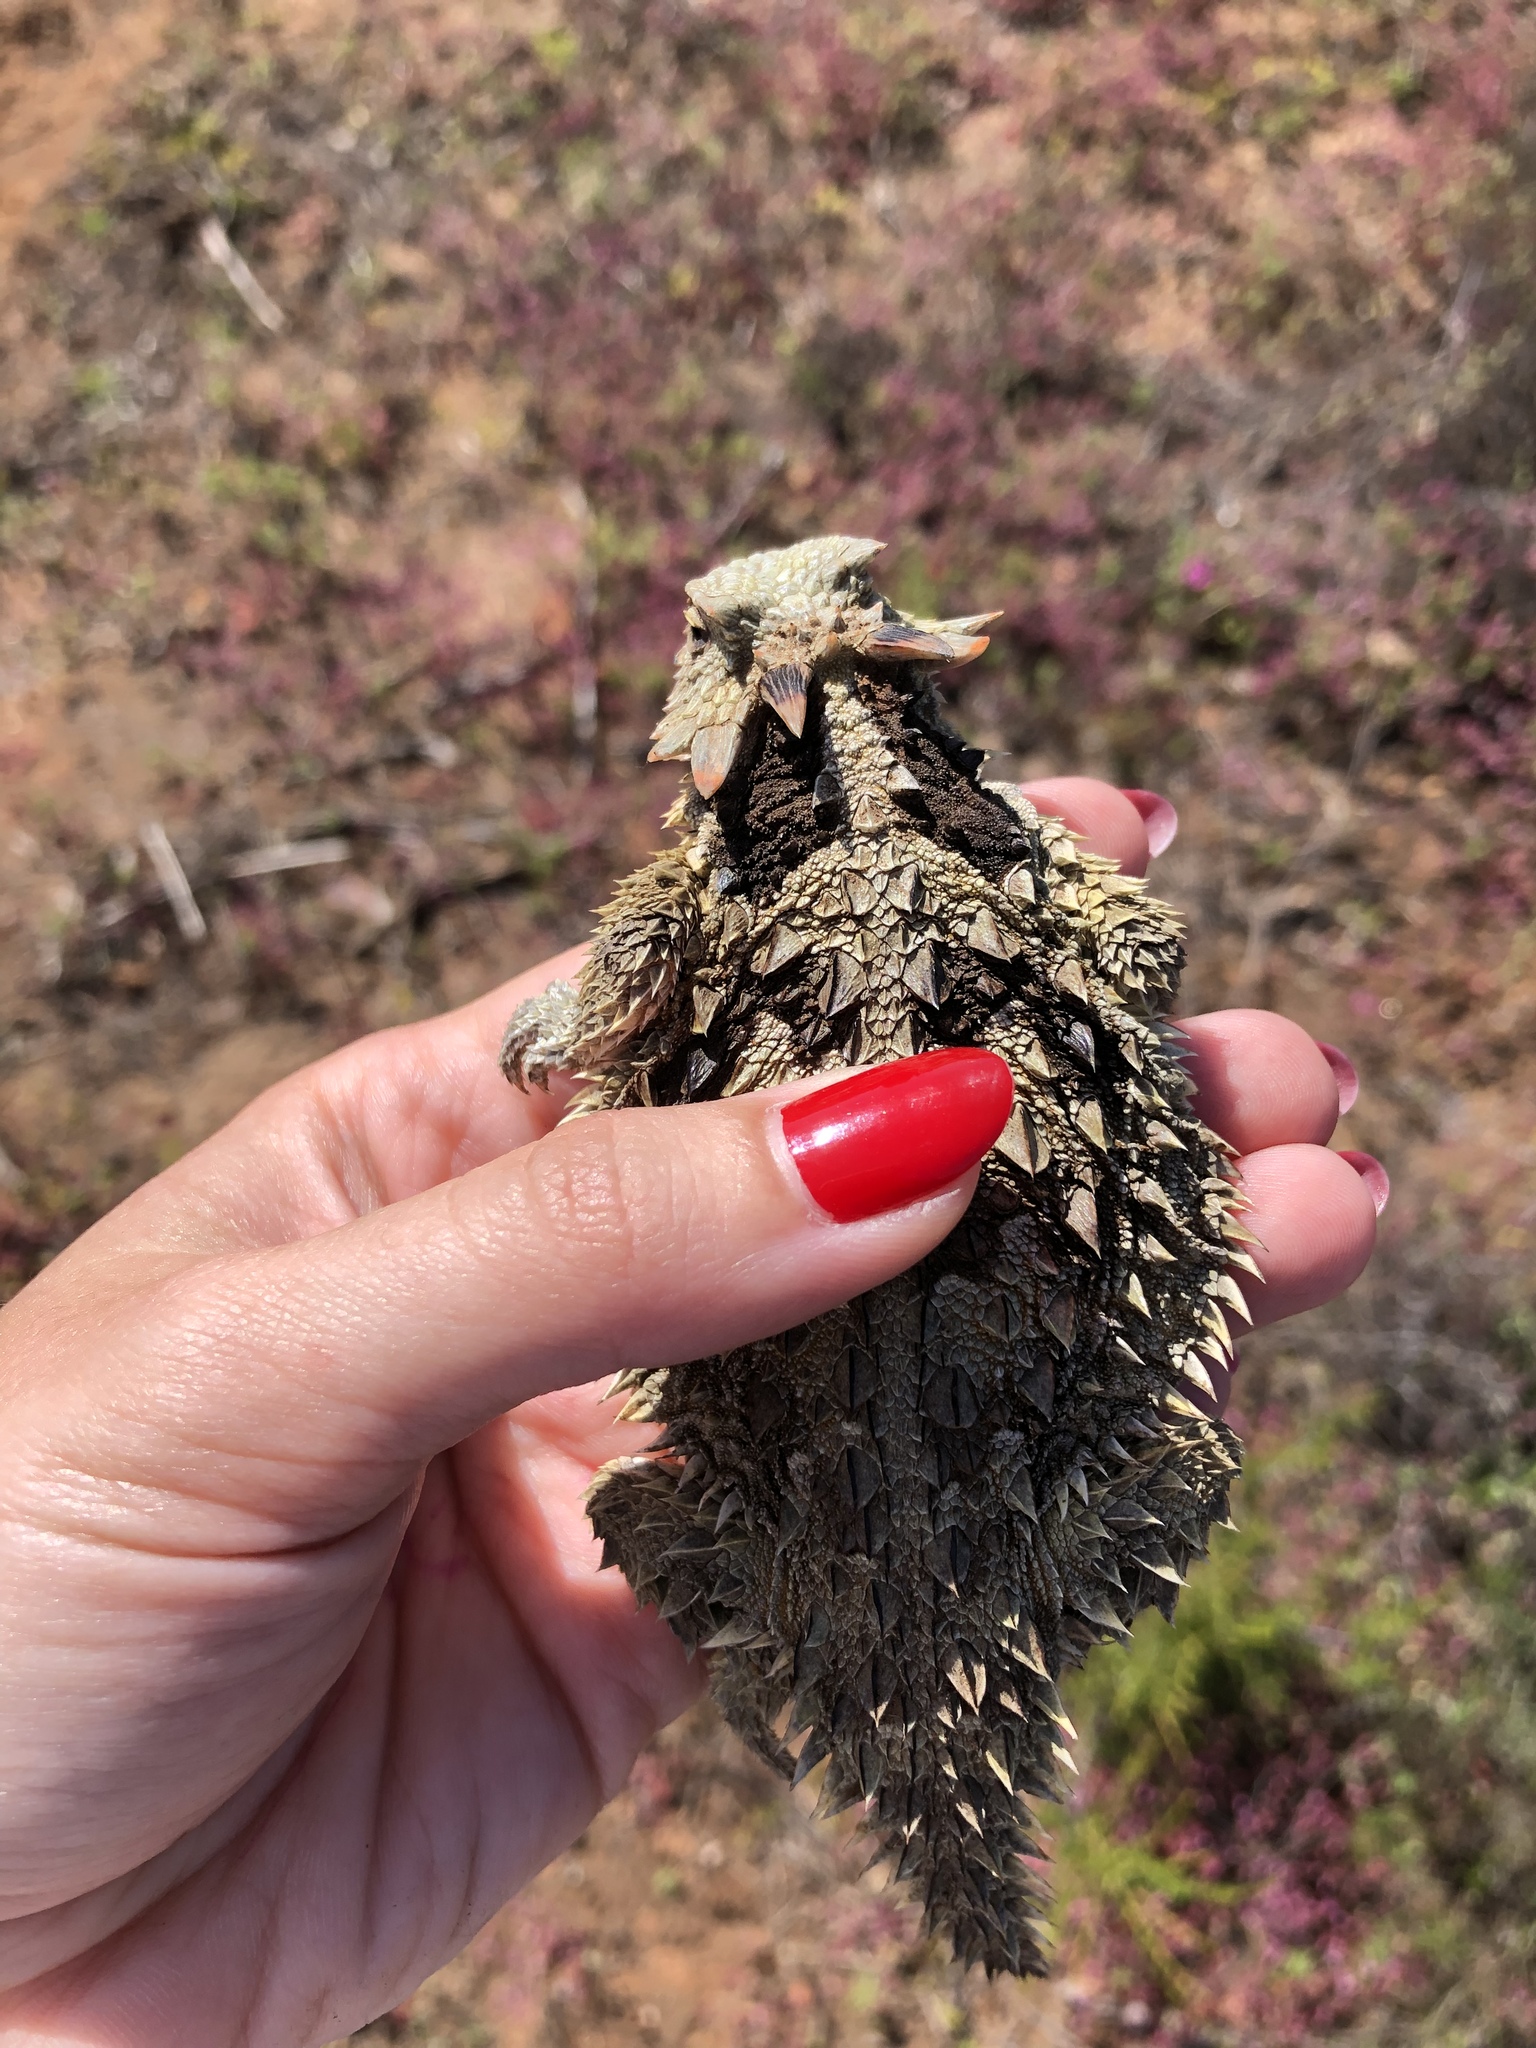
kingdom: Animalia
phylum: Chordata
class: Squamata
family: Phrynosomatidae
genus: Phrynosoma
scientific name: Phrynosoma blainvillii
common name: San diego horned lizard
